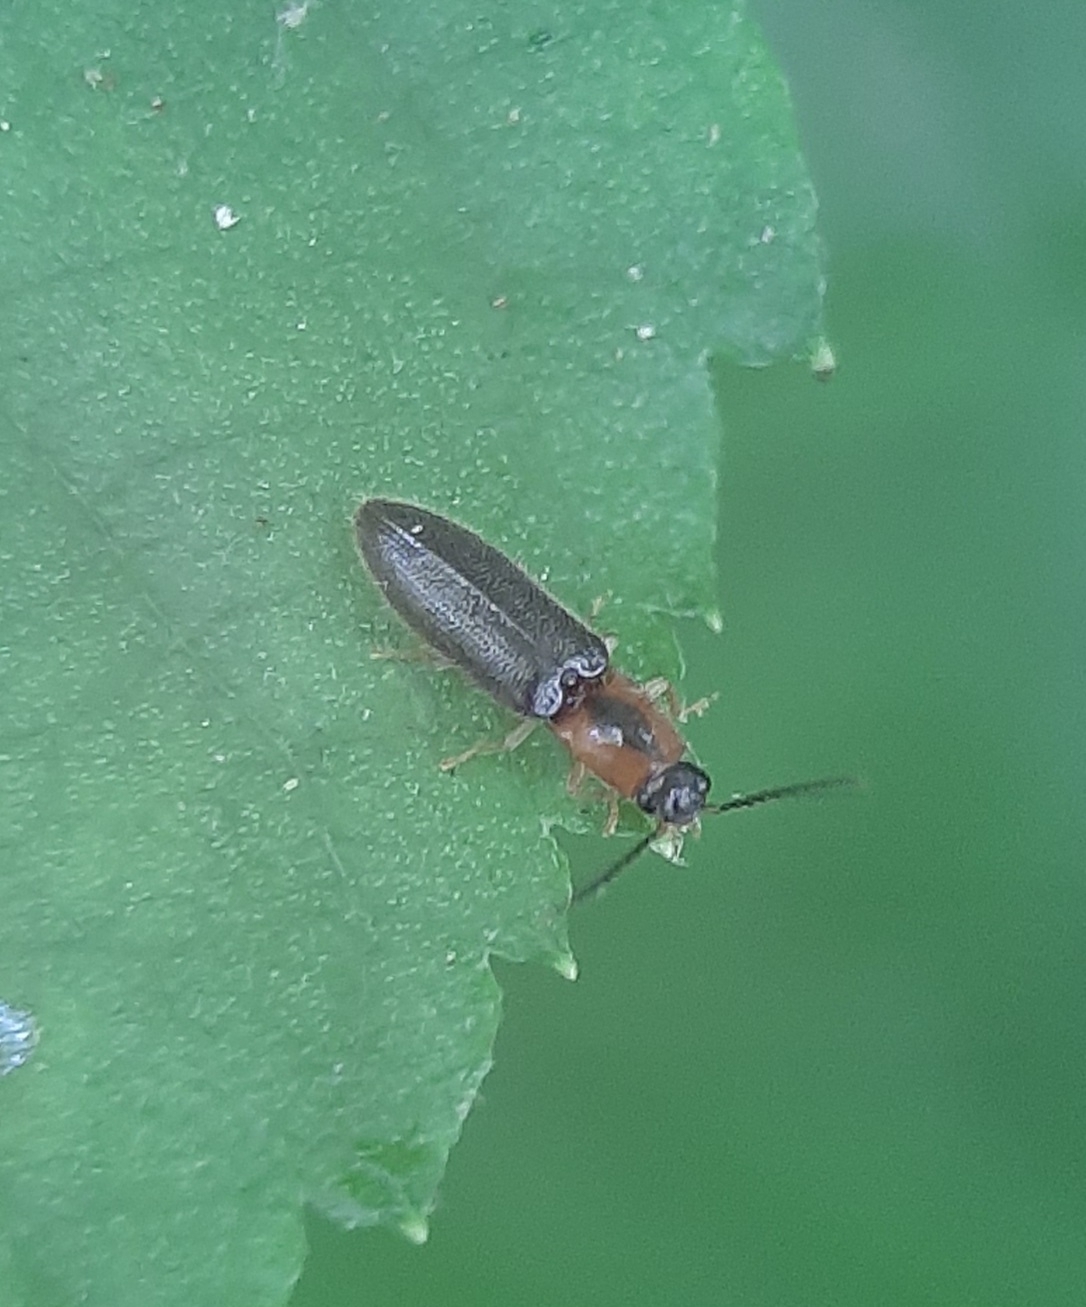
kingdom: Animalia
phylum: Arthropoda
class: Insecta
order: Coleoptera
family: Elateridae
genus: Athous
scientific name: Athous neacanthus
